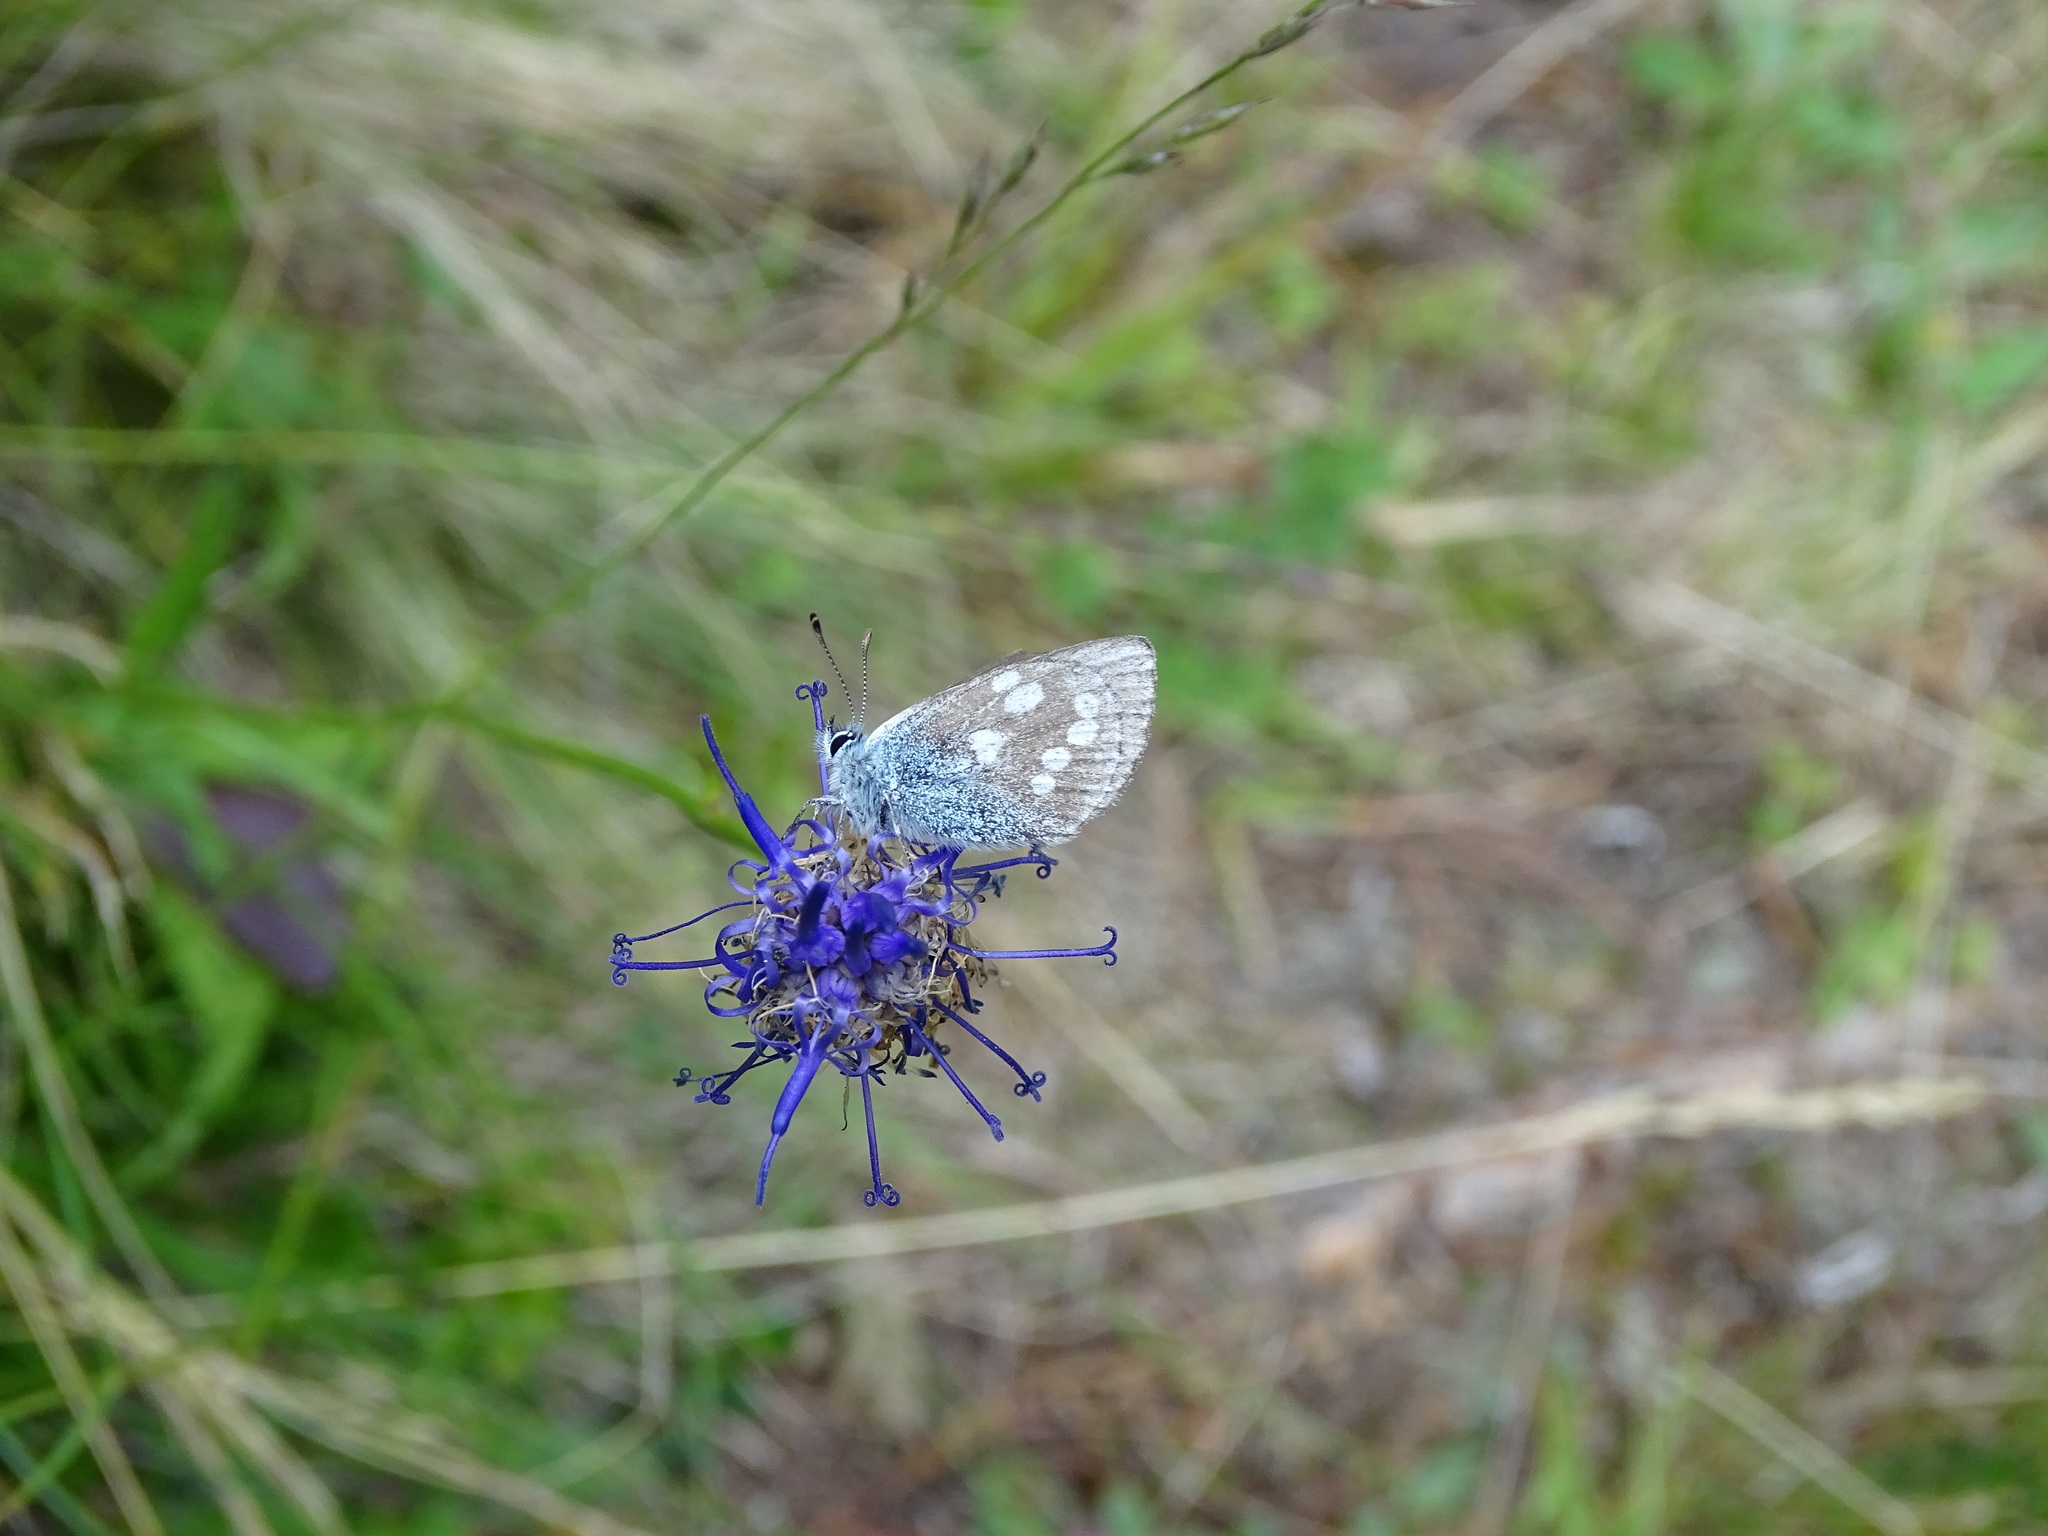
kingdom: Animalia
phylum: Arthropoda
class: Insecta
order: Lepidoptera
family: Lycaenidae
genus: Albulina
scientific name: Albulina orbitulus
